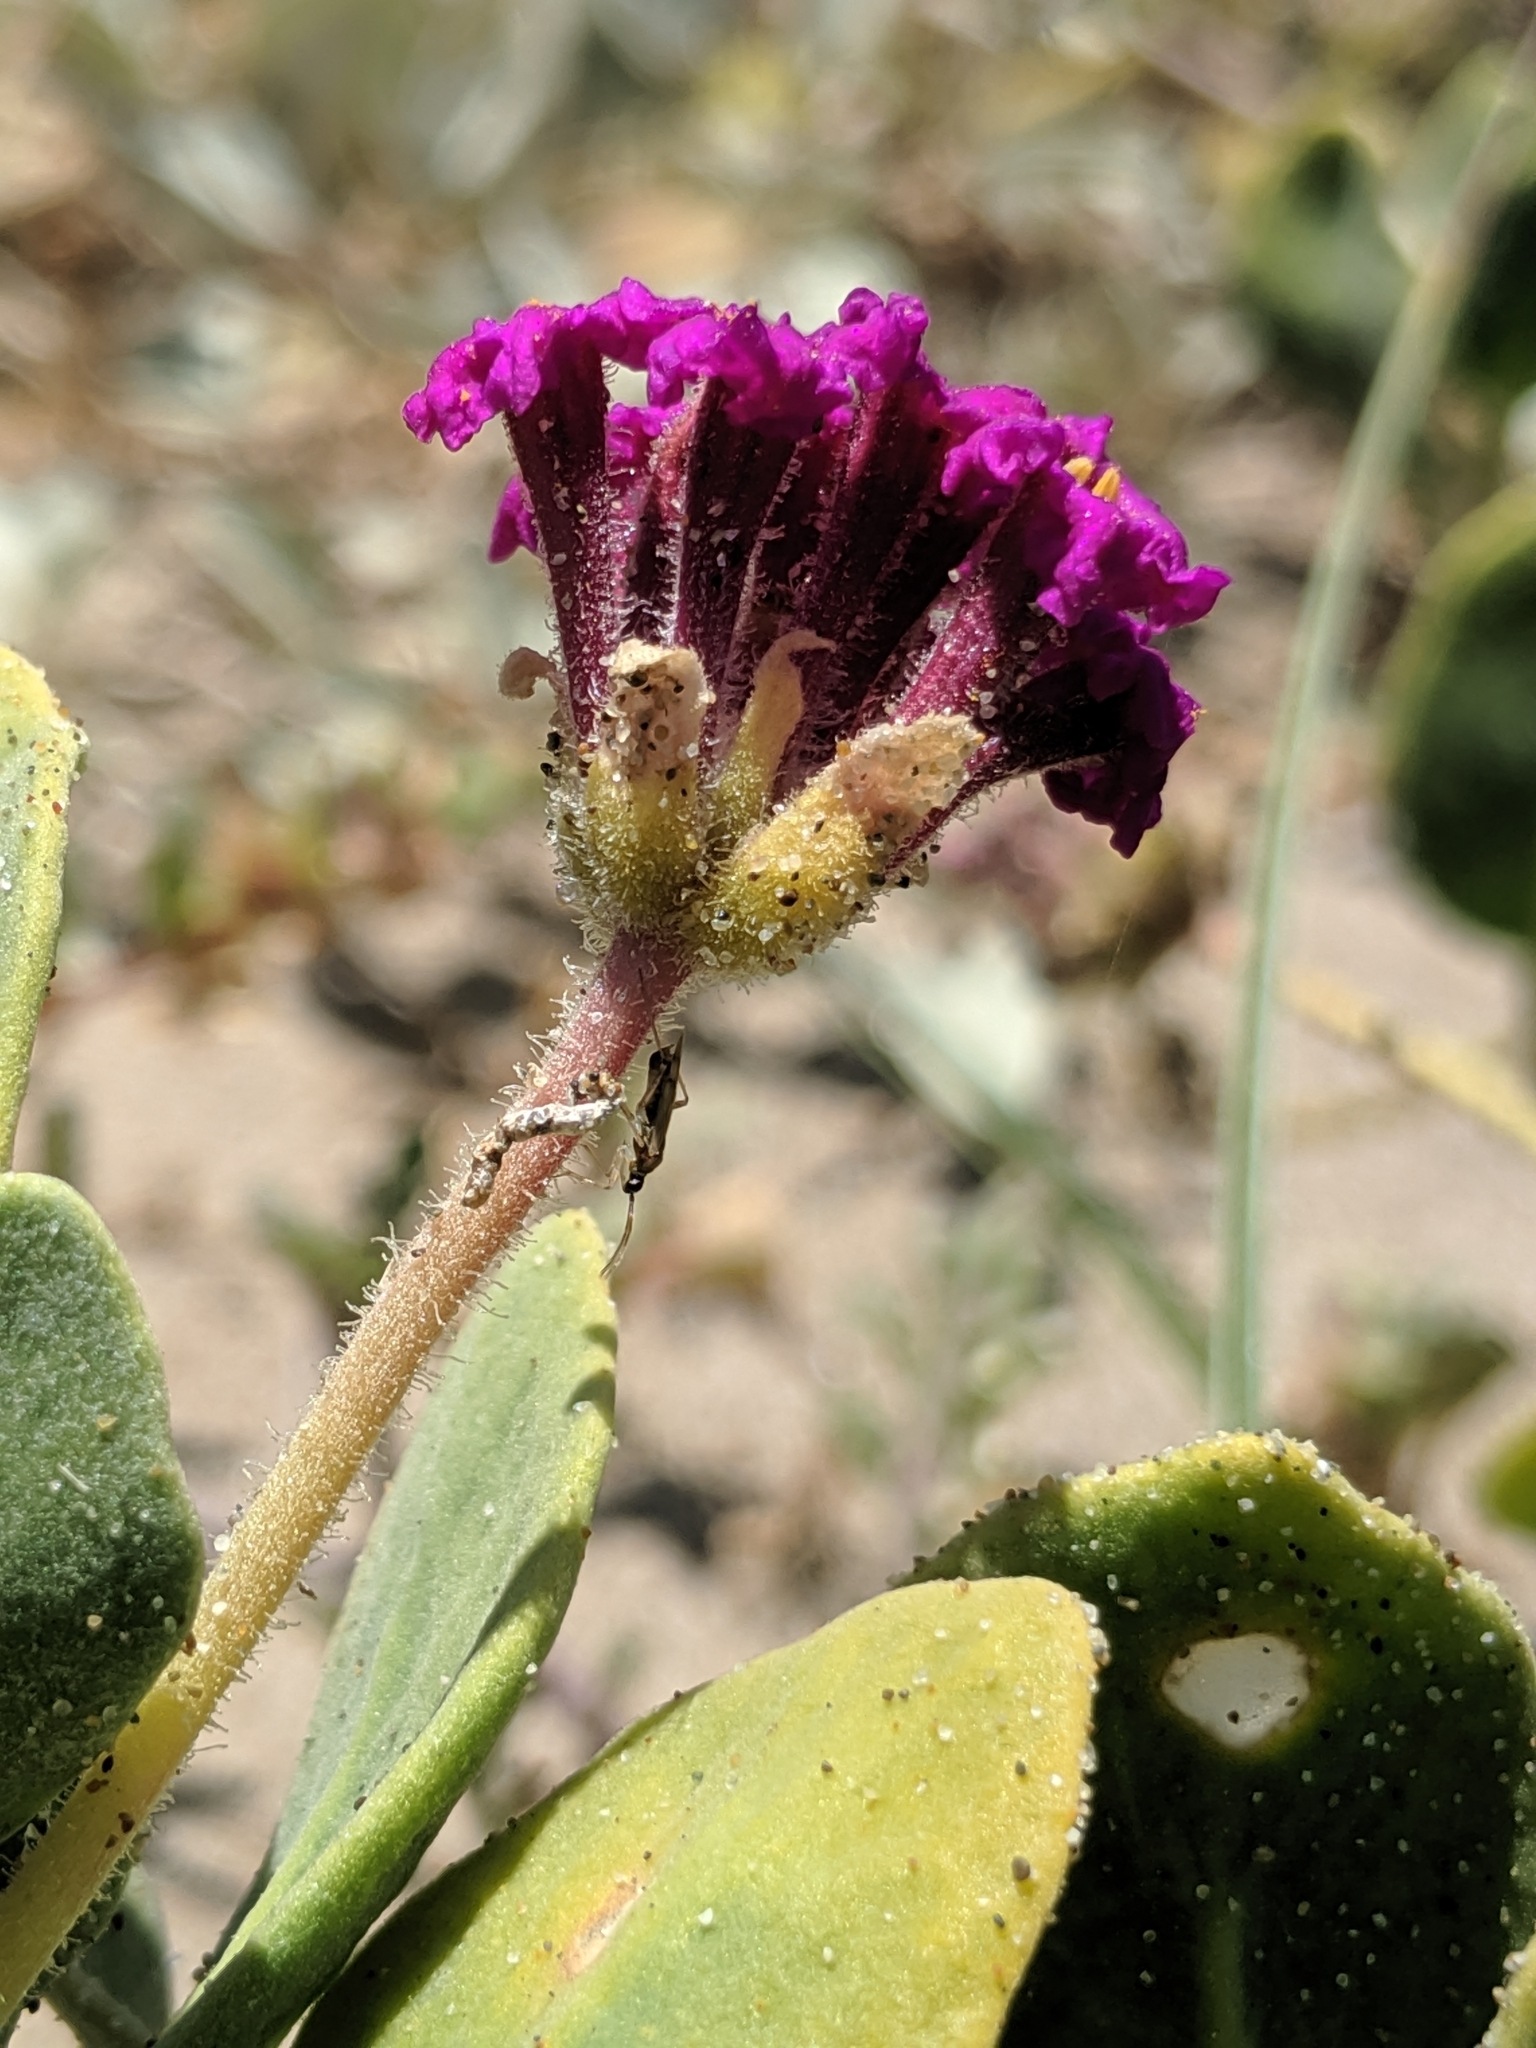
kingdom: Plantae
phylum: Tracheophyta
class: Magnoliopsida
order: Caryophyllales
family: Nyctaginaceae
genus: Abronia
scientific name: Abronia maritima
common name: Red sand-verbena
